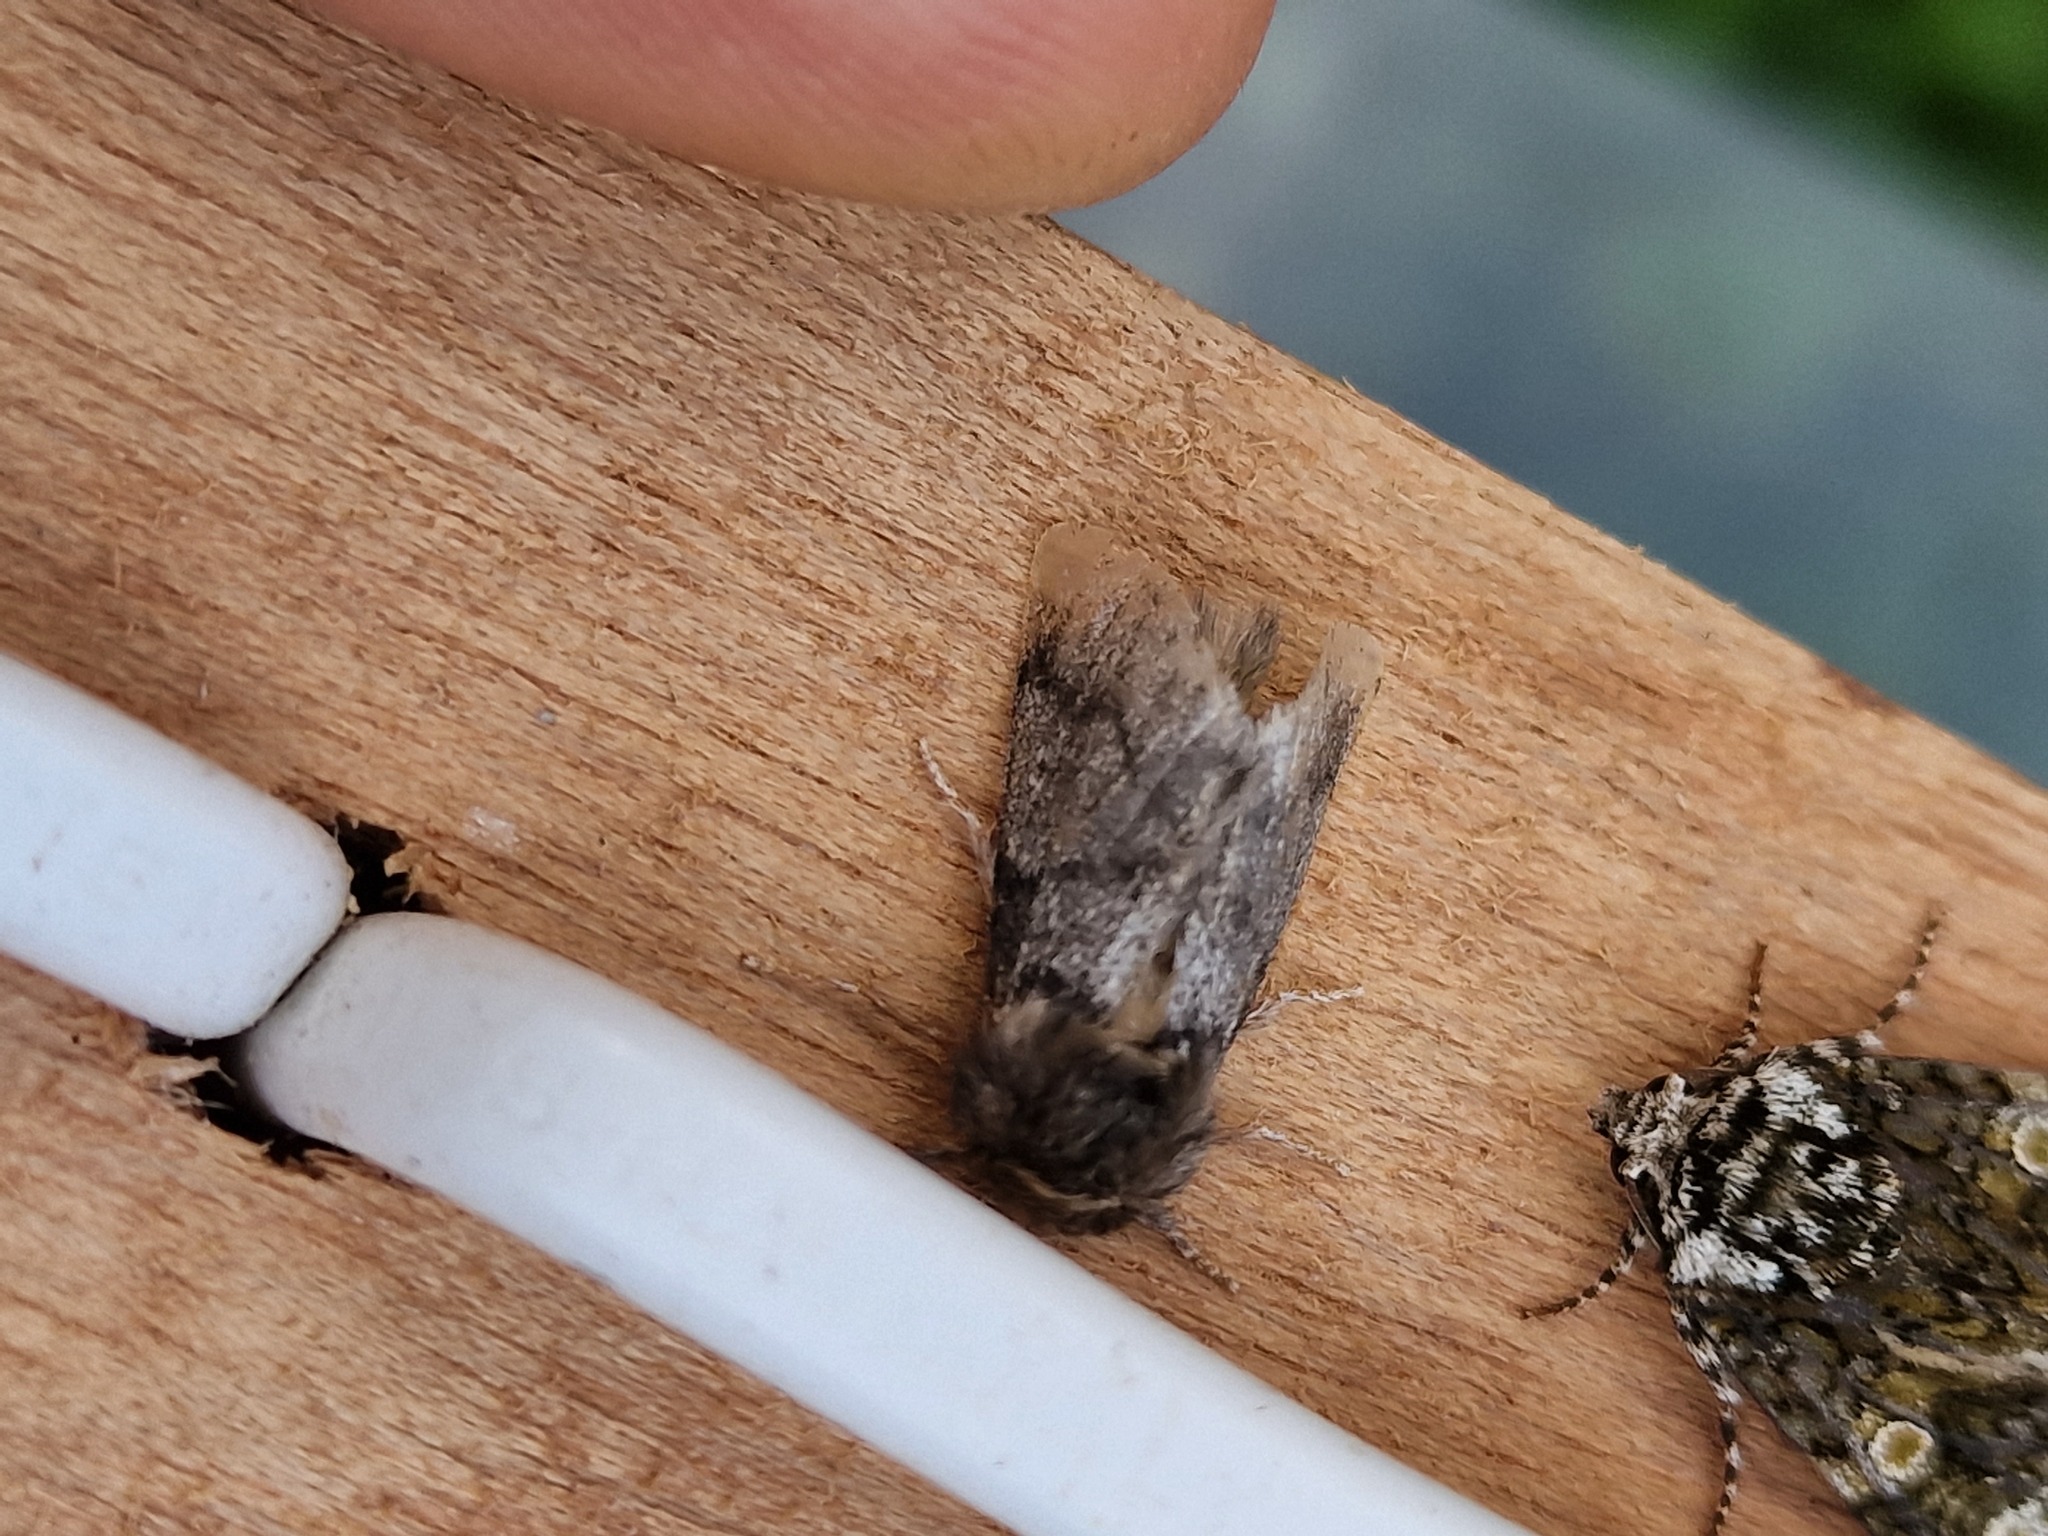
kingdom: Animalia
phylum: Arthropoda
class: Insecta
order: Lepidoptera
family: Notodontidae
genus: Thaumetopoea
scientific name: Thaumetopoea processionea
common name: Oak processionea
